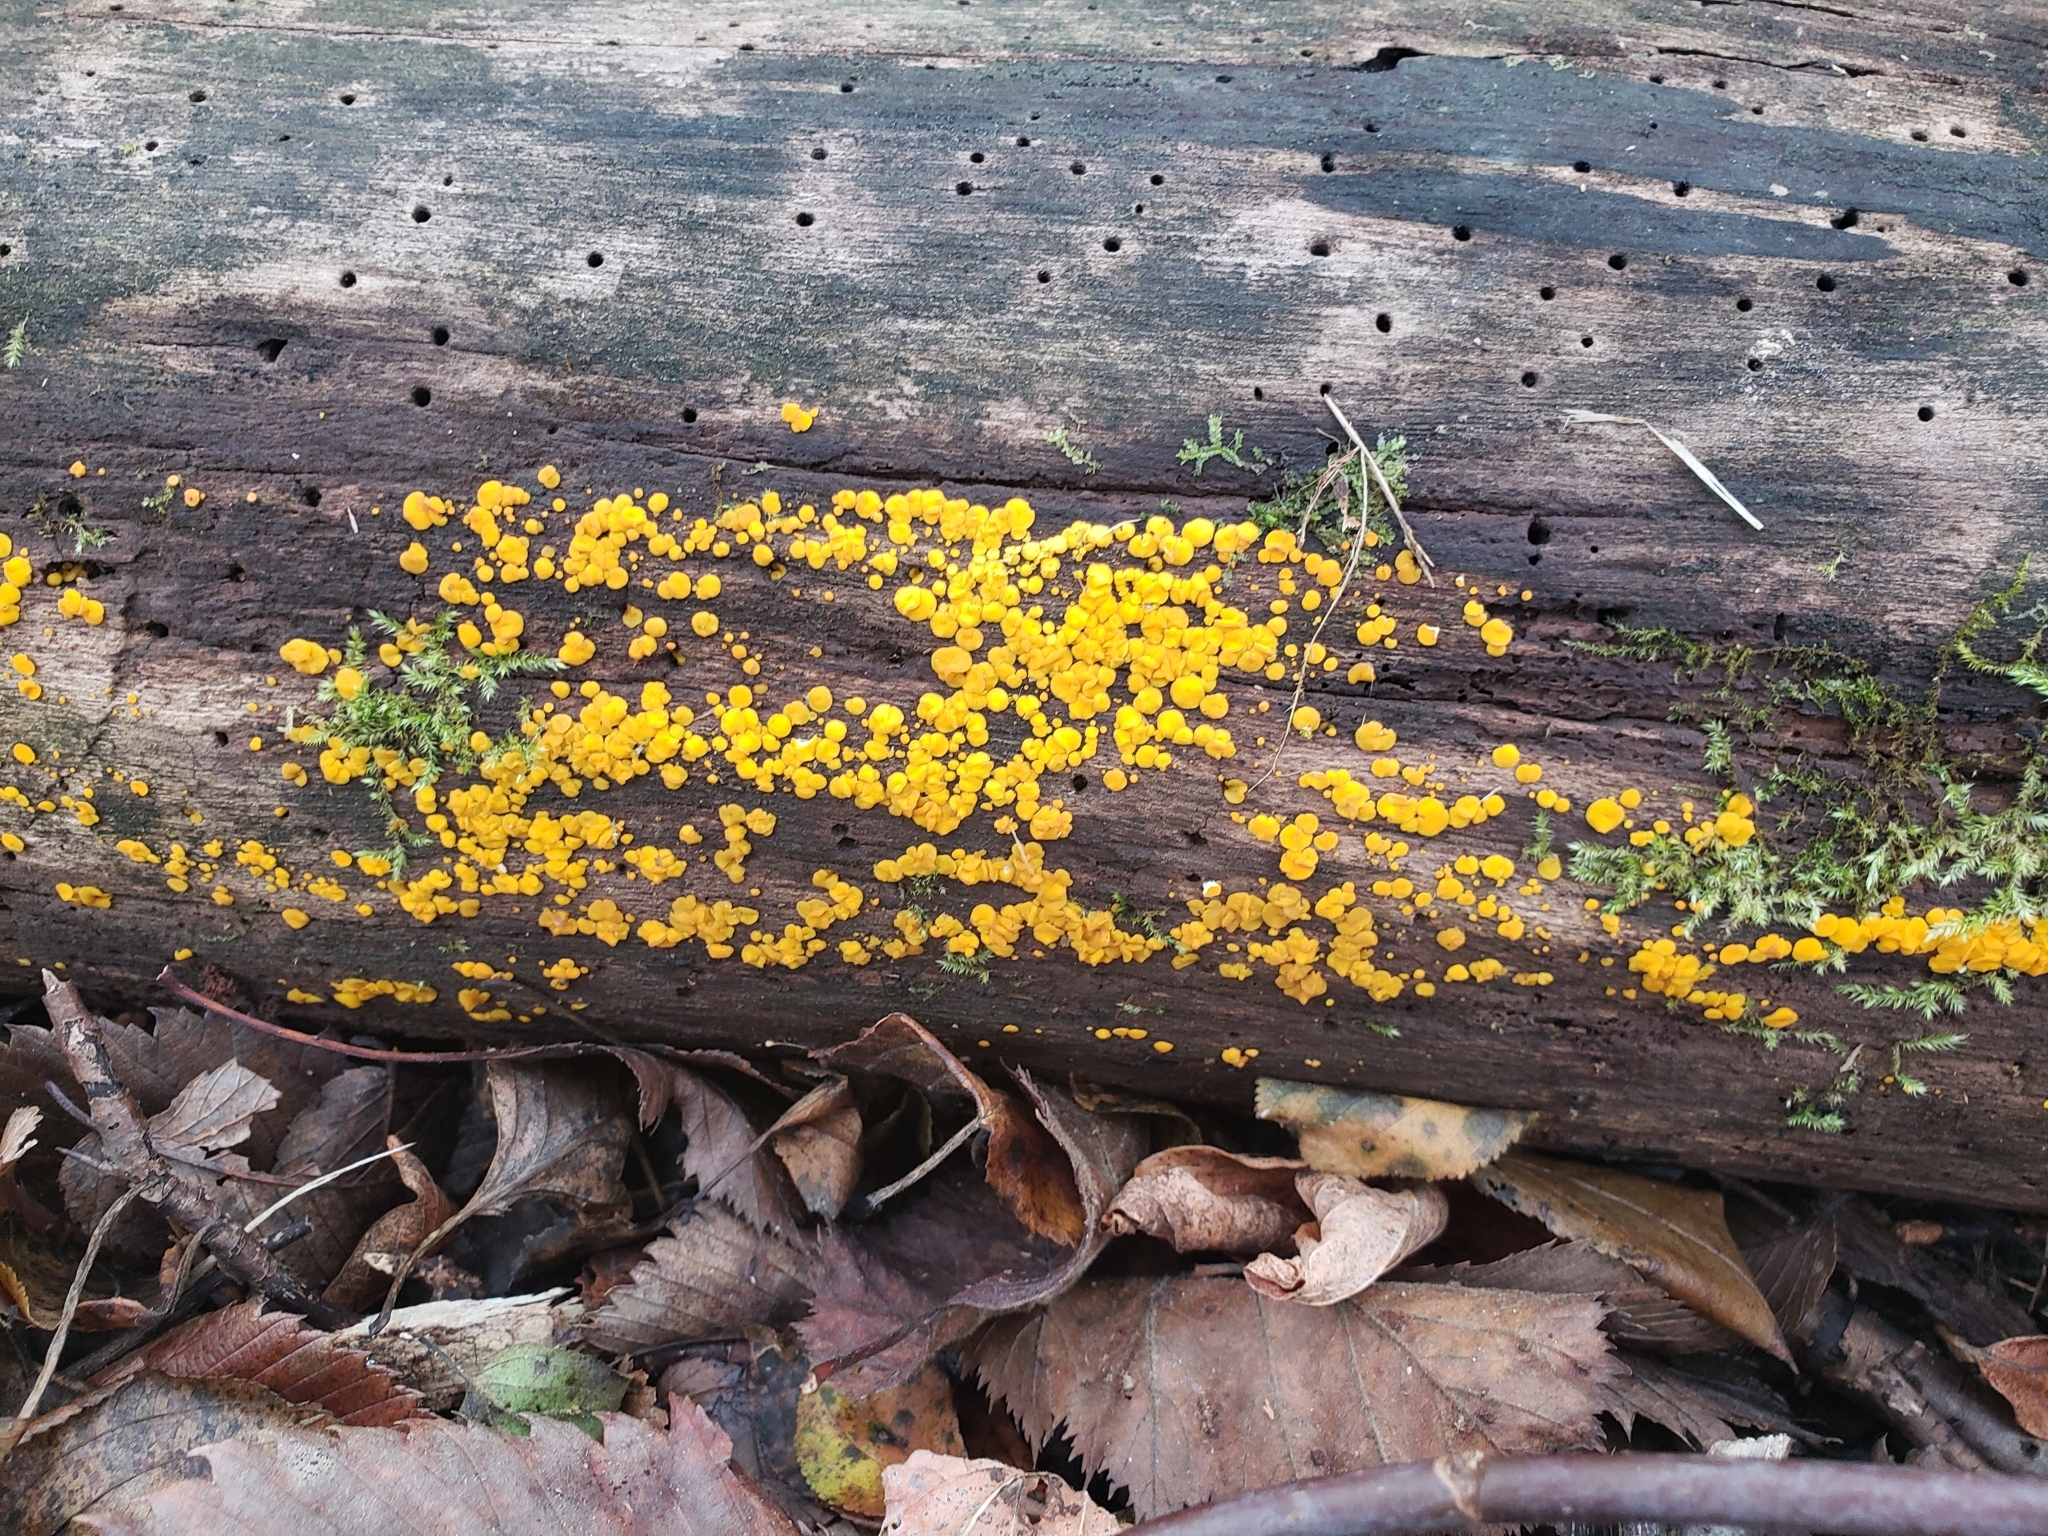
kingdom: Fungi
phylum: Ascomycota
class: Leotiomycetes
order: Helotiales
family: Pezizellaceae
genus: Calycina
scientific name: Calycina citrina
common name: Yellow fairy cups
